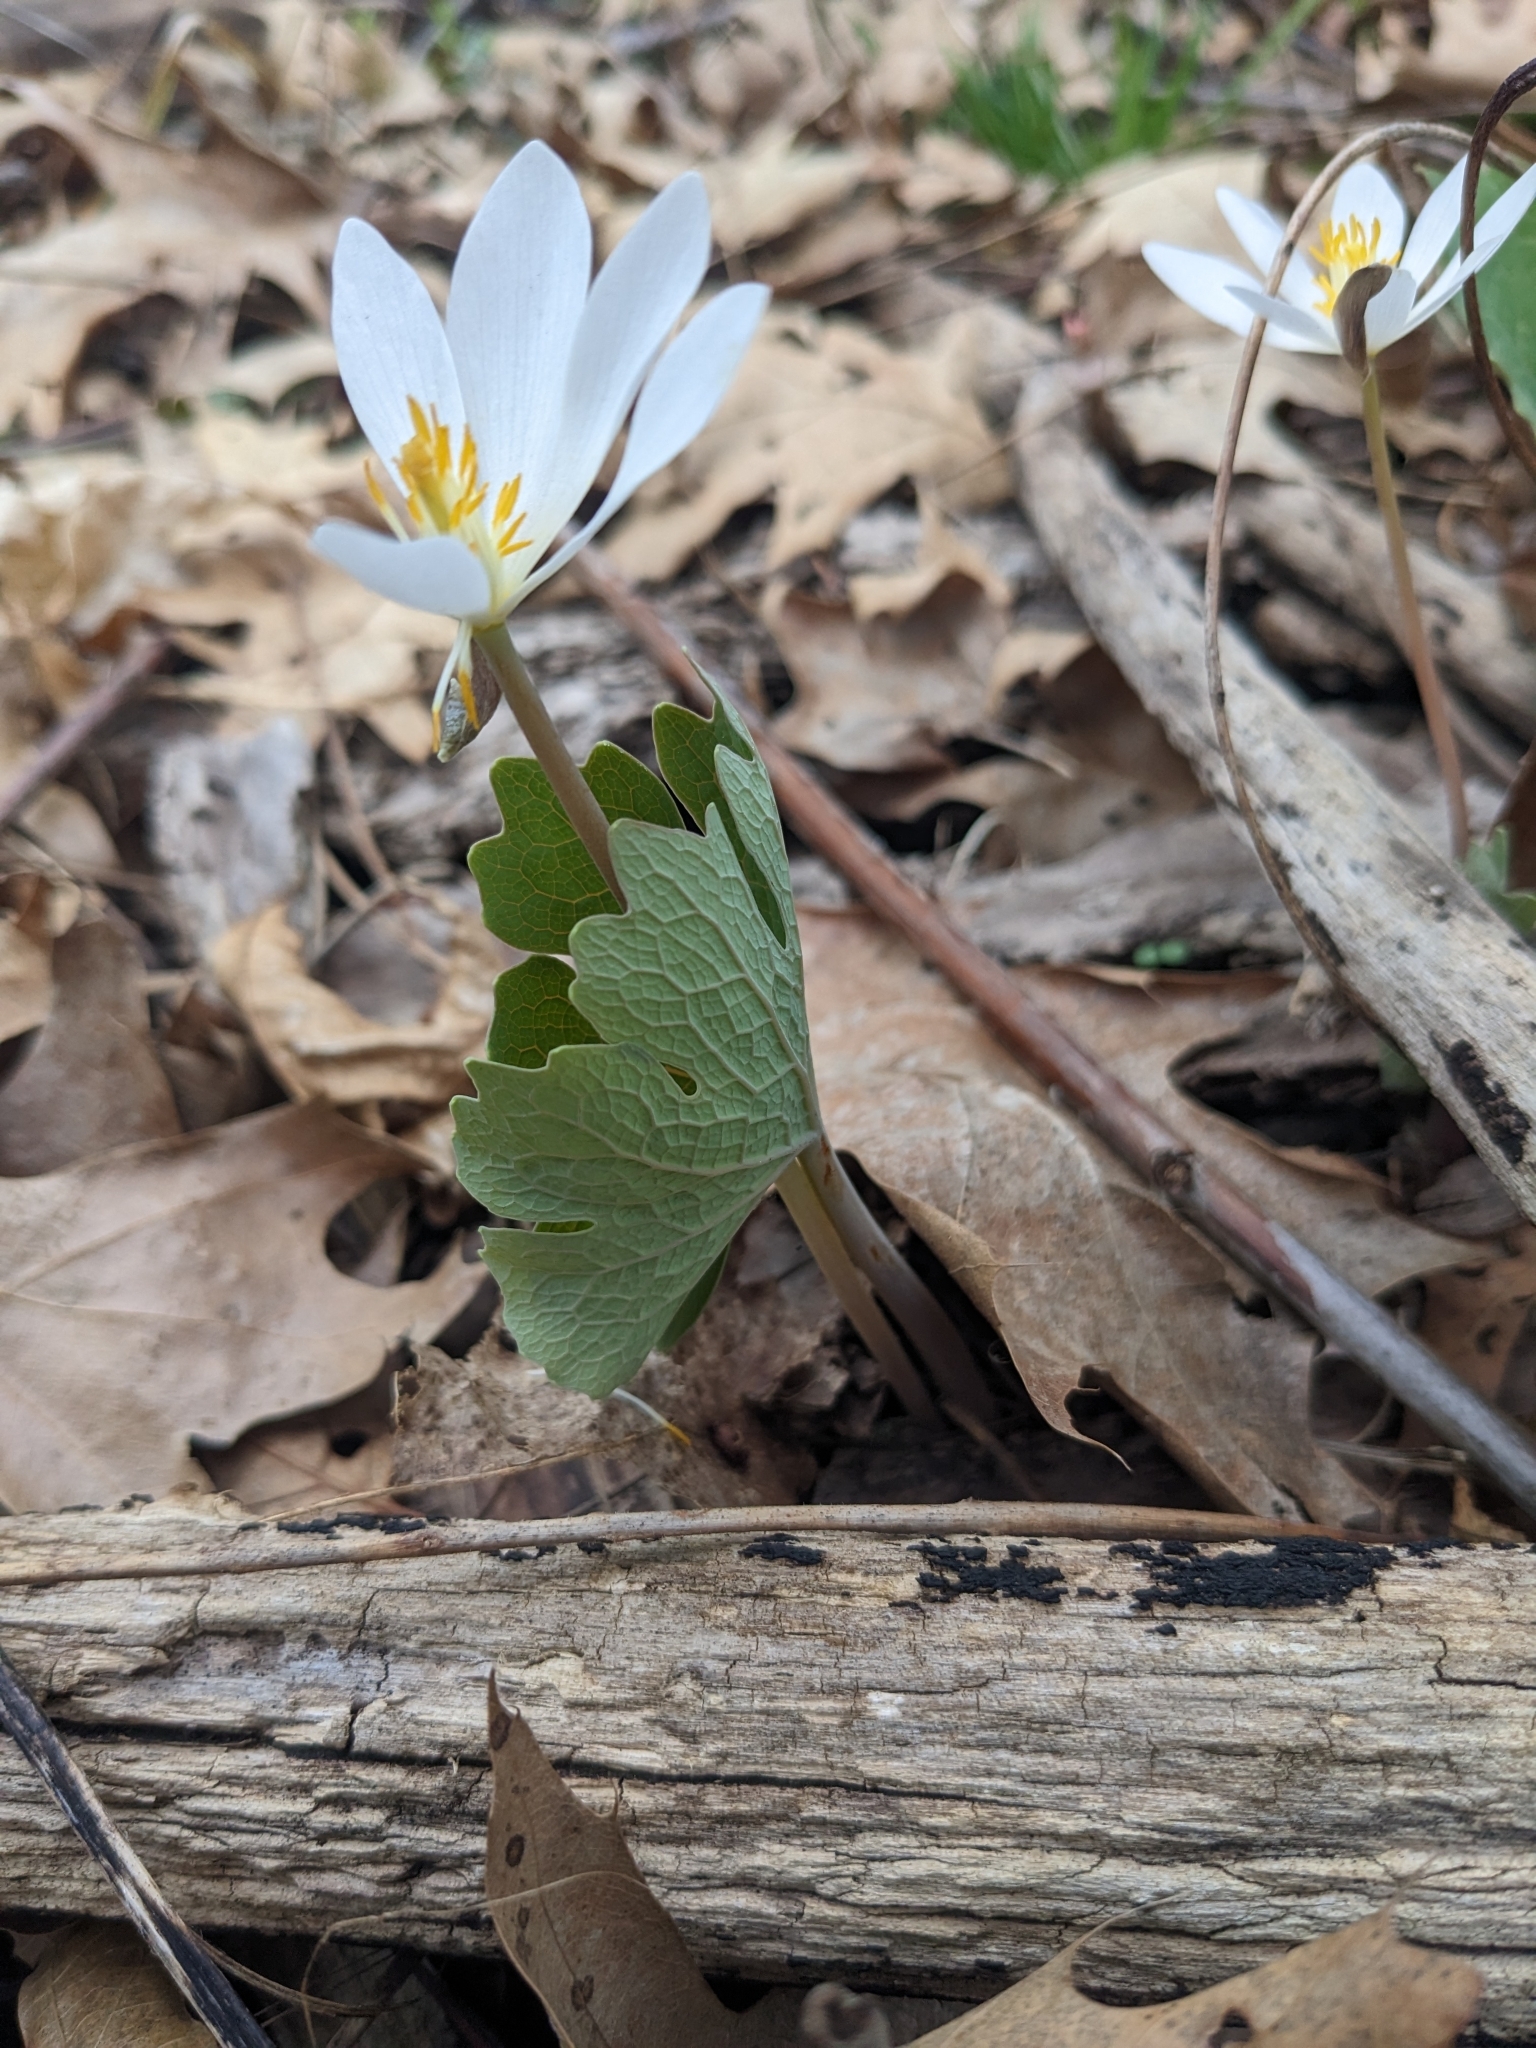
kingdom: Plantae
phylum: Tracheophyta
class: Magnoliopsida
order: Ranunculales
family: Papaveraceae
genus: Sanguinaria
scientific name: Sanguinaria canadensis
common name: Bloodroot
